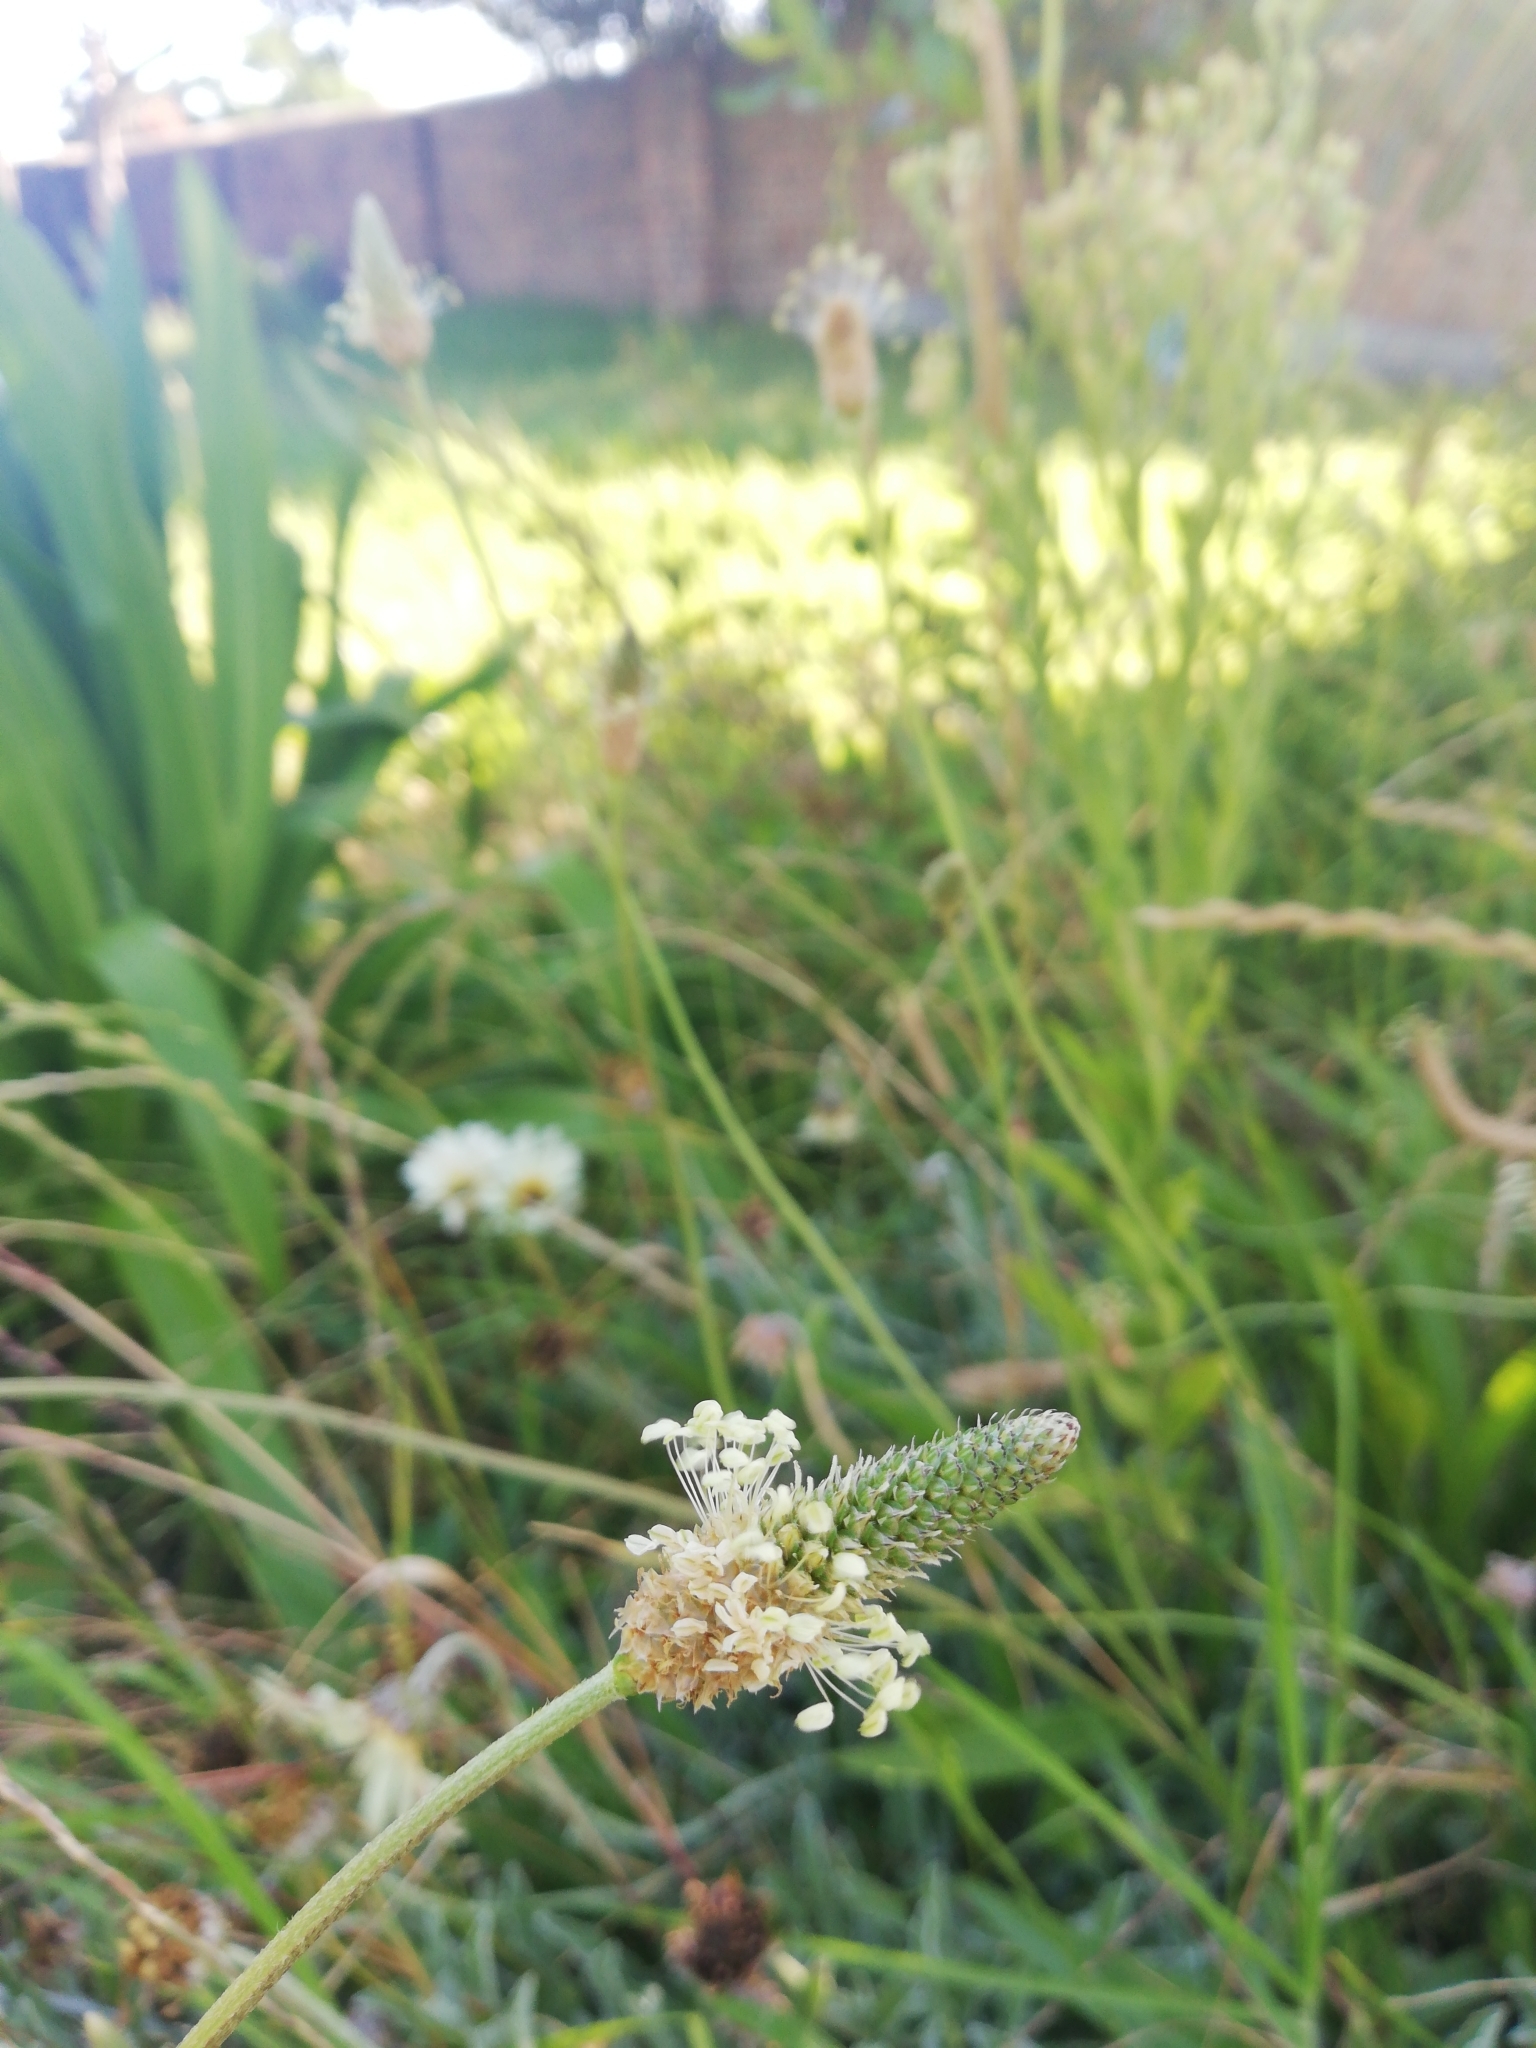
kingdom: Plantae
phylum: Tracheophyta
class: Magnoliopsida
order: Lamiales
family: Plantaginaceae
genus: Plantago
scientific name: Plantago lanceolata
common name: Ribwort plantain
